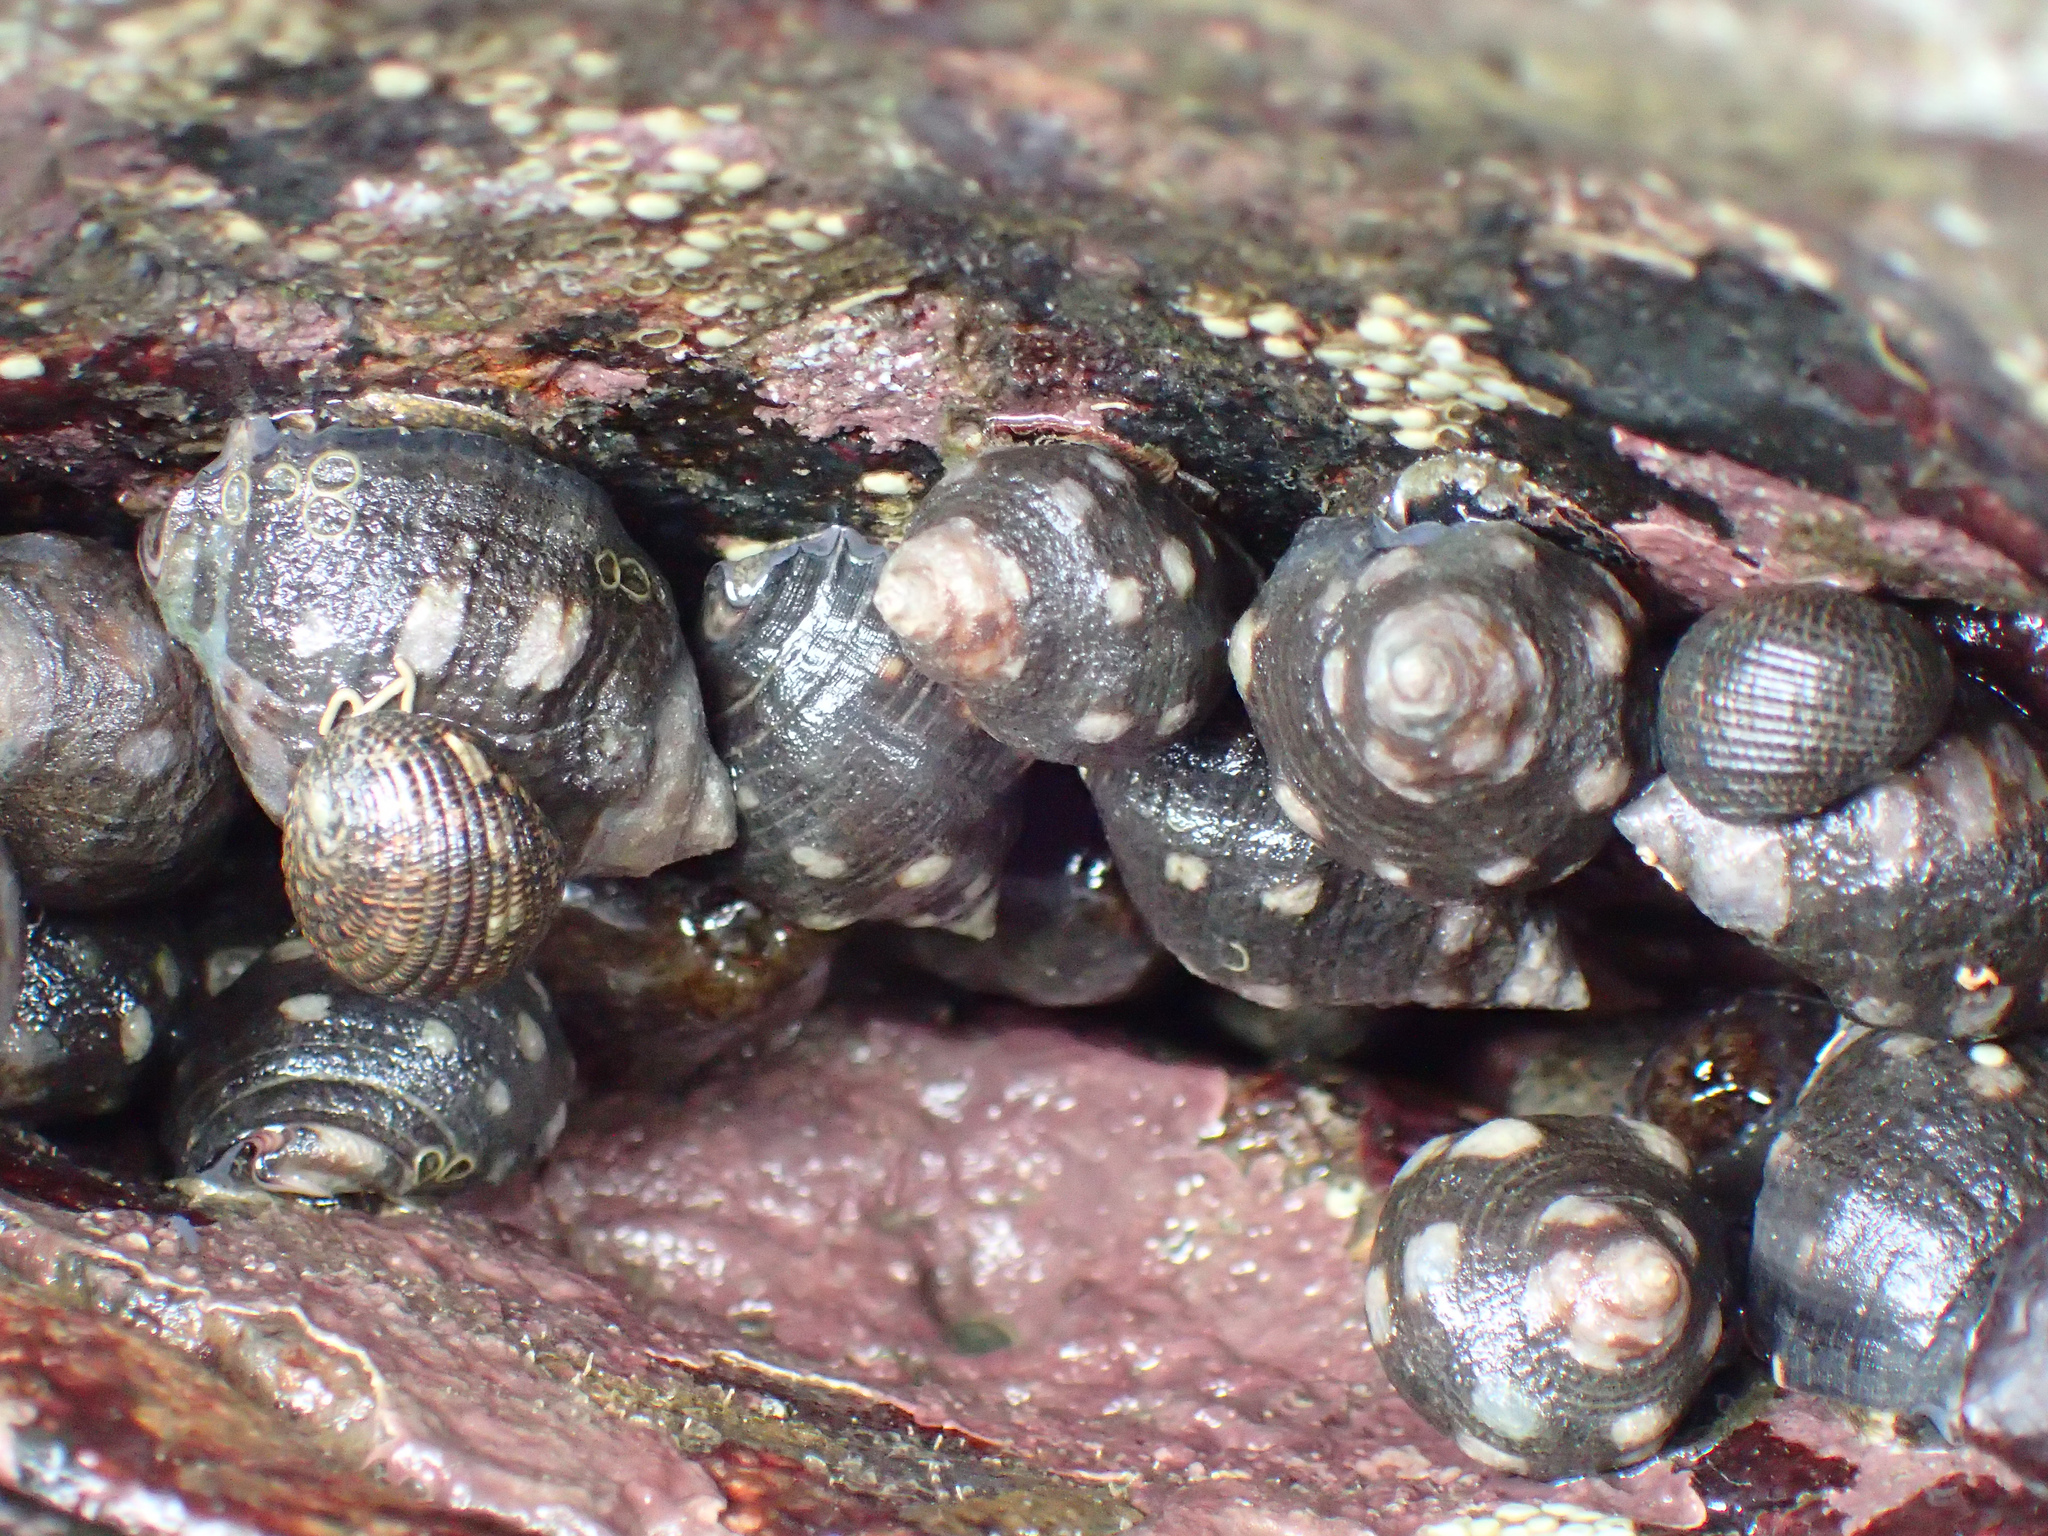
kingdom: Animalia
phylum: Mollusca
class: Gastropoda
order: Neogastropoda
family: Muricidae
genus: Acanthais
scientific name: Acanthais brevidentata
